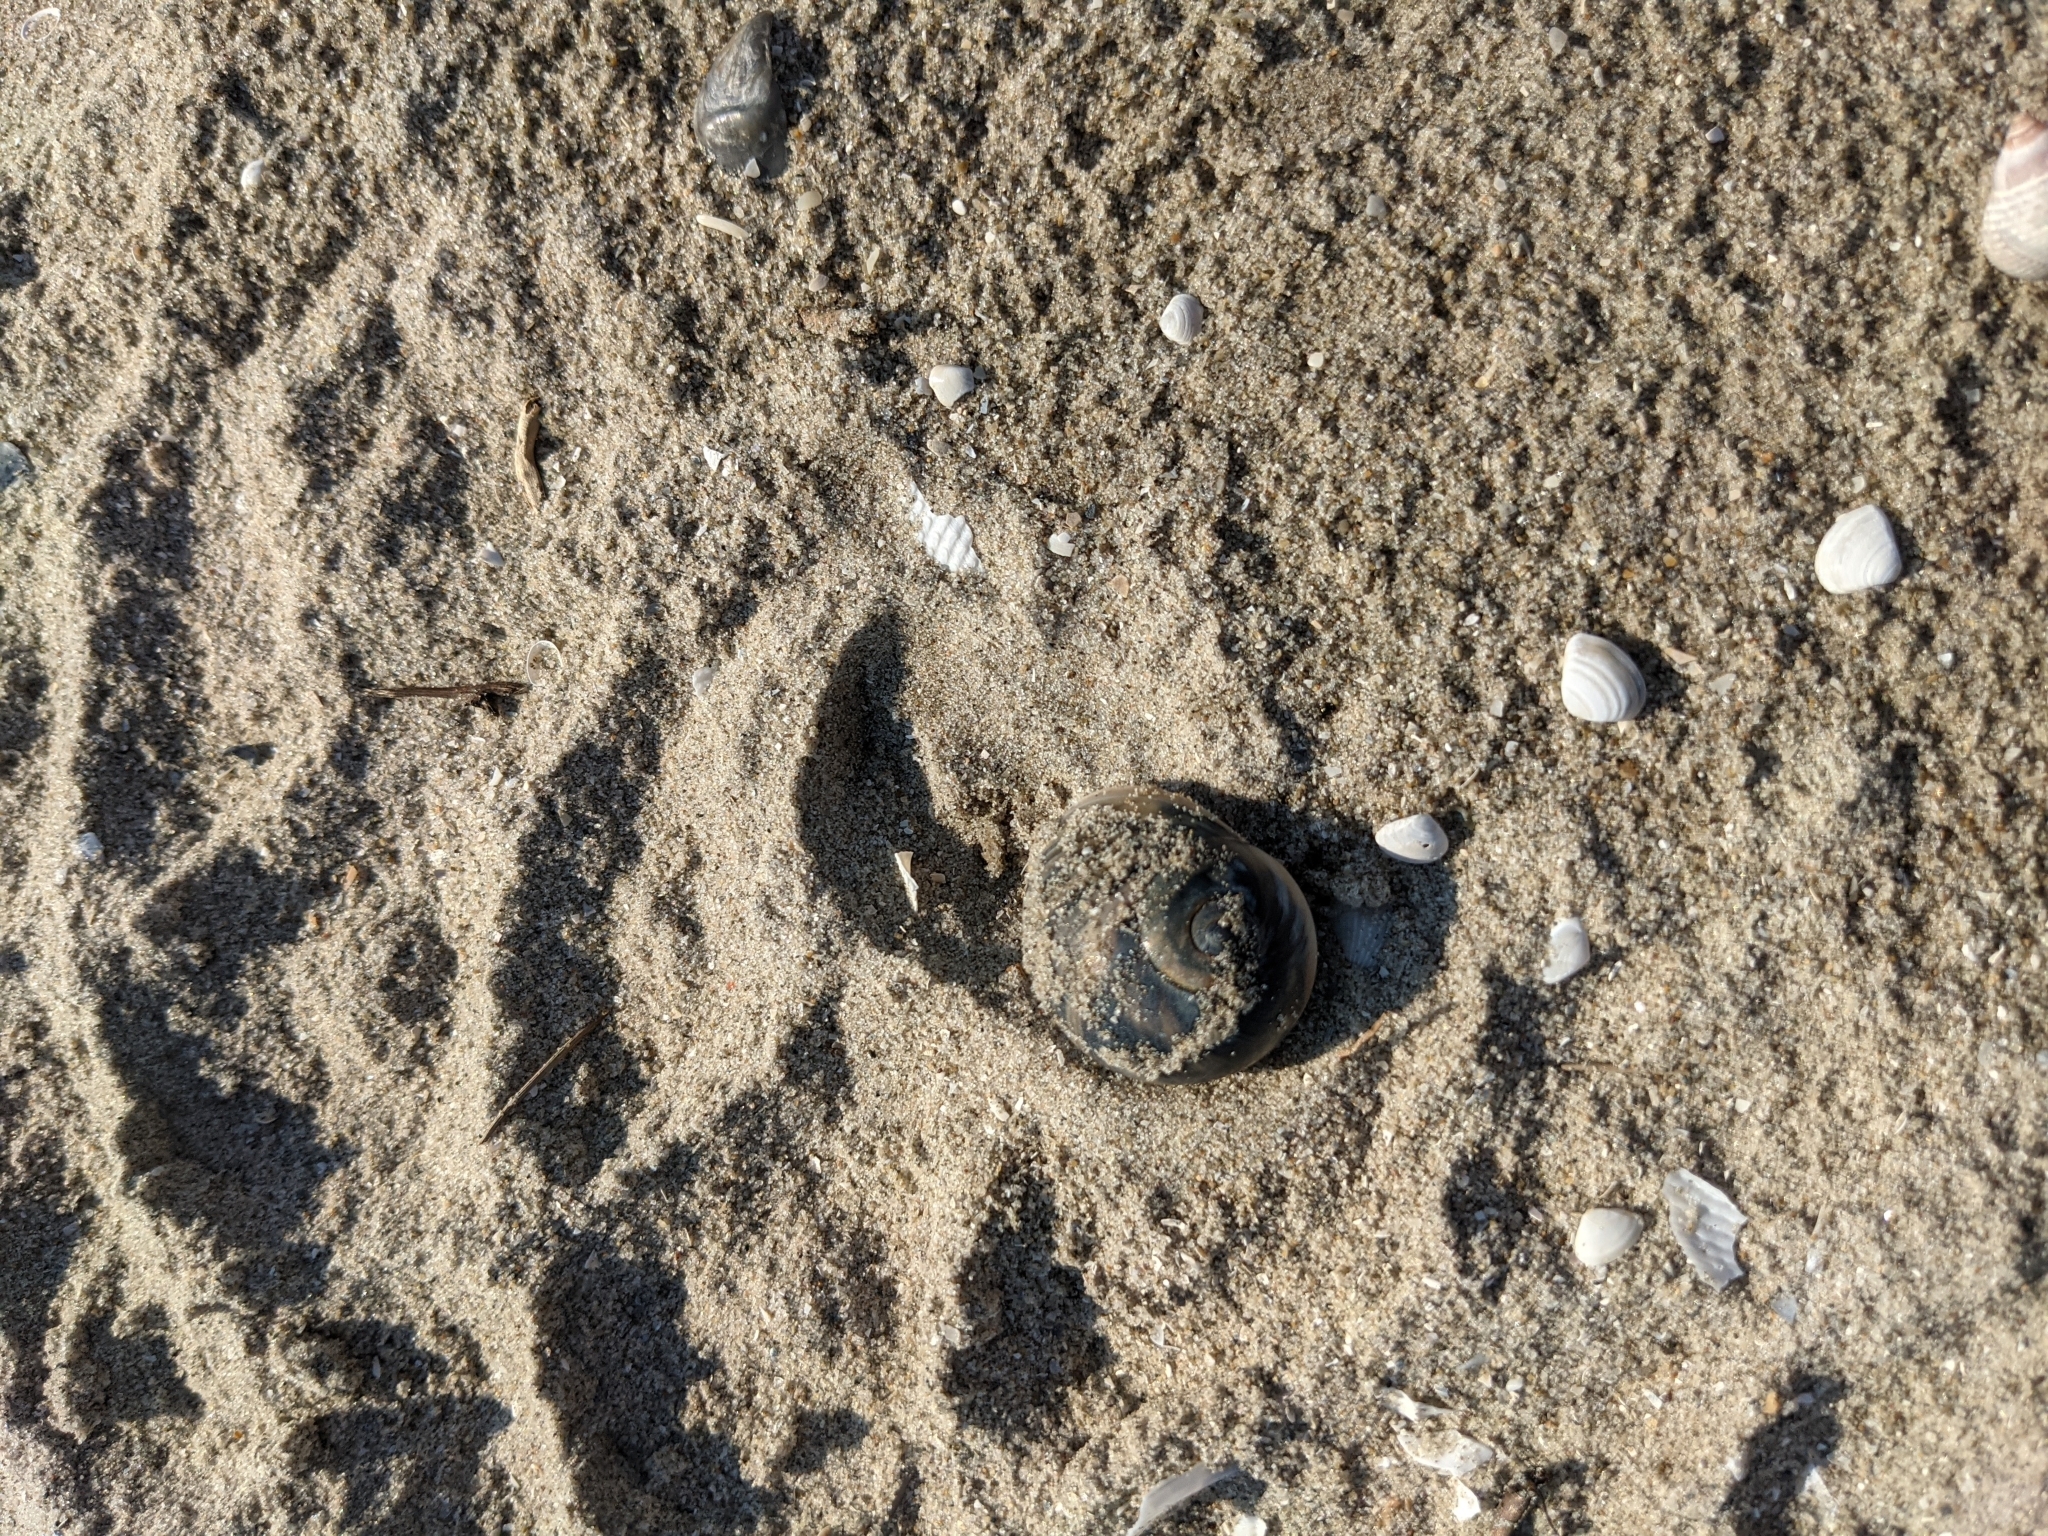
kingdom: Animalia
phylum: Mollusca
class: Gastropoda
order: Littorinimorpha
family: Naticidae
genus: Neverita
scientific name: Neverita delessertiana
